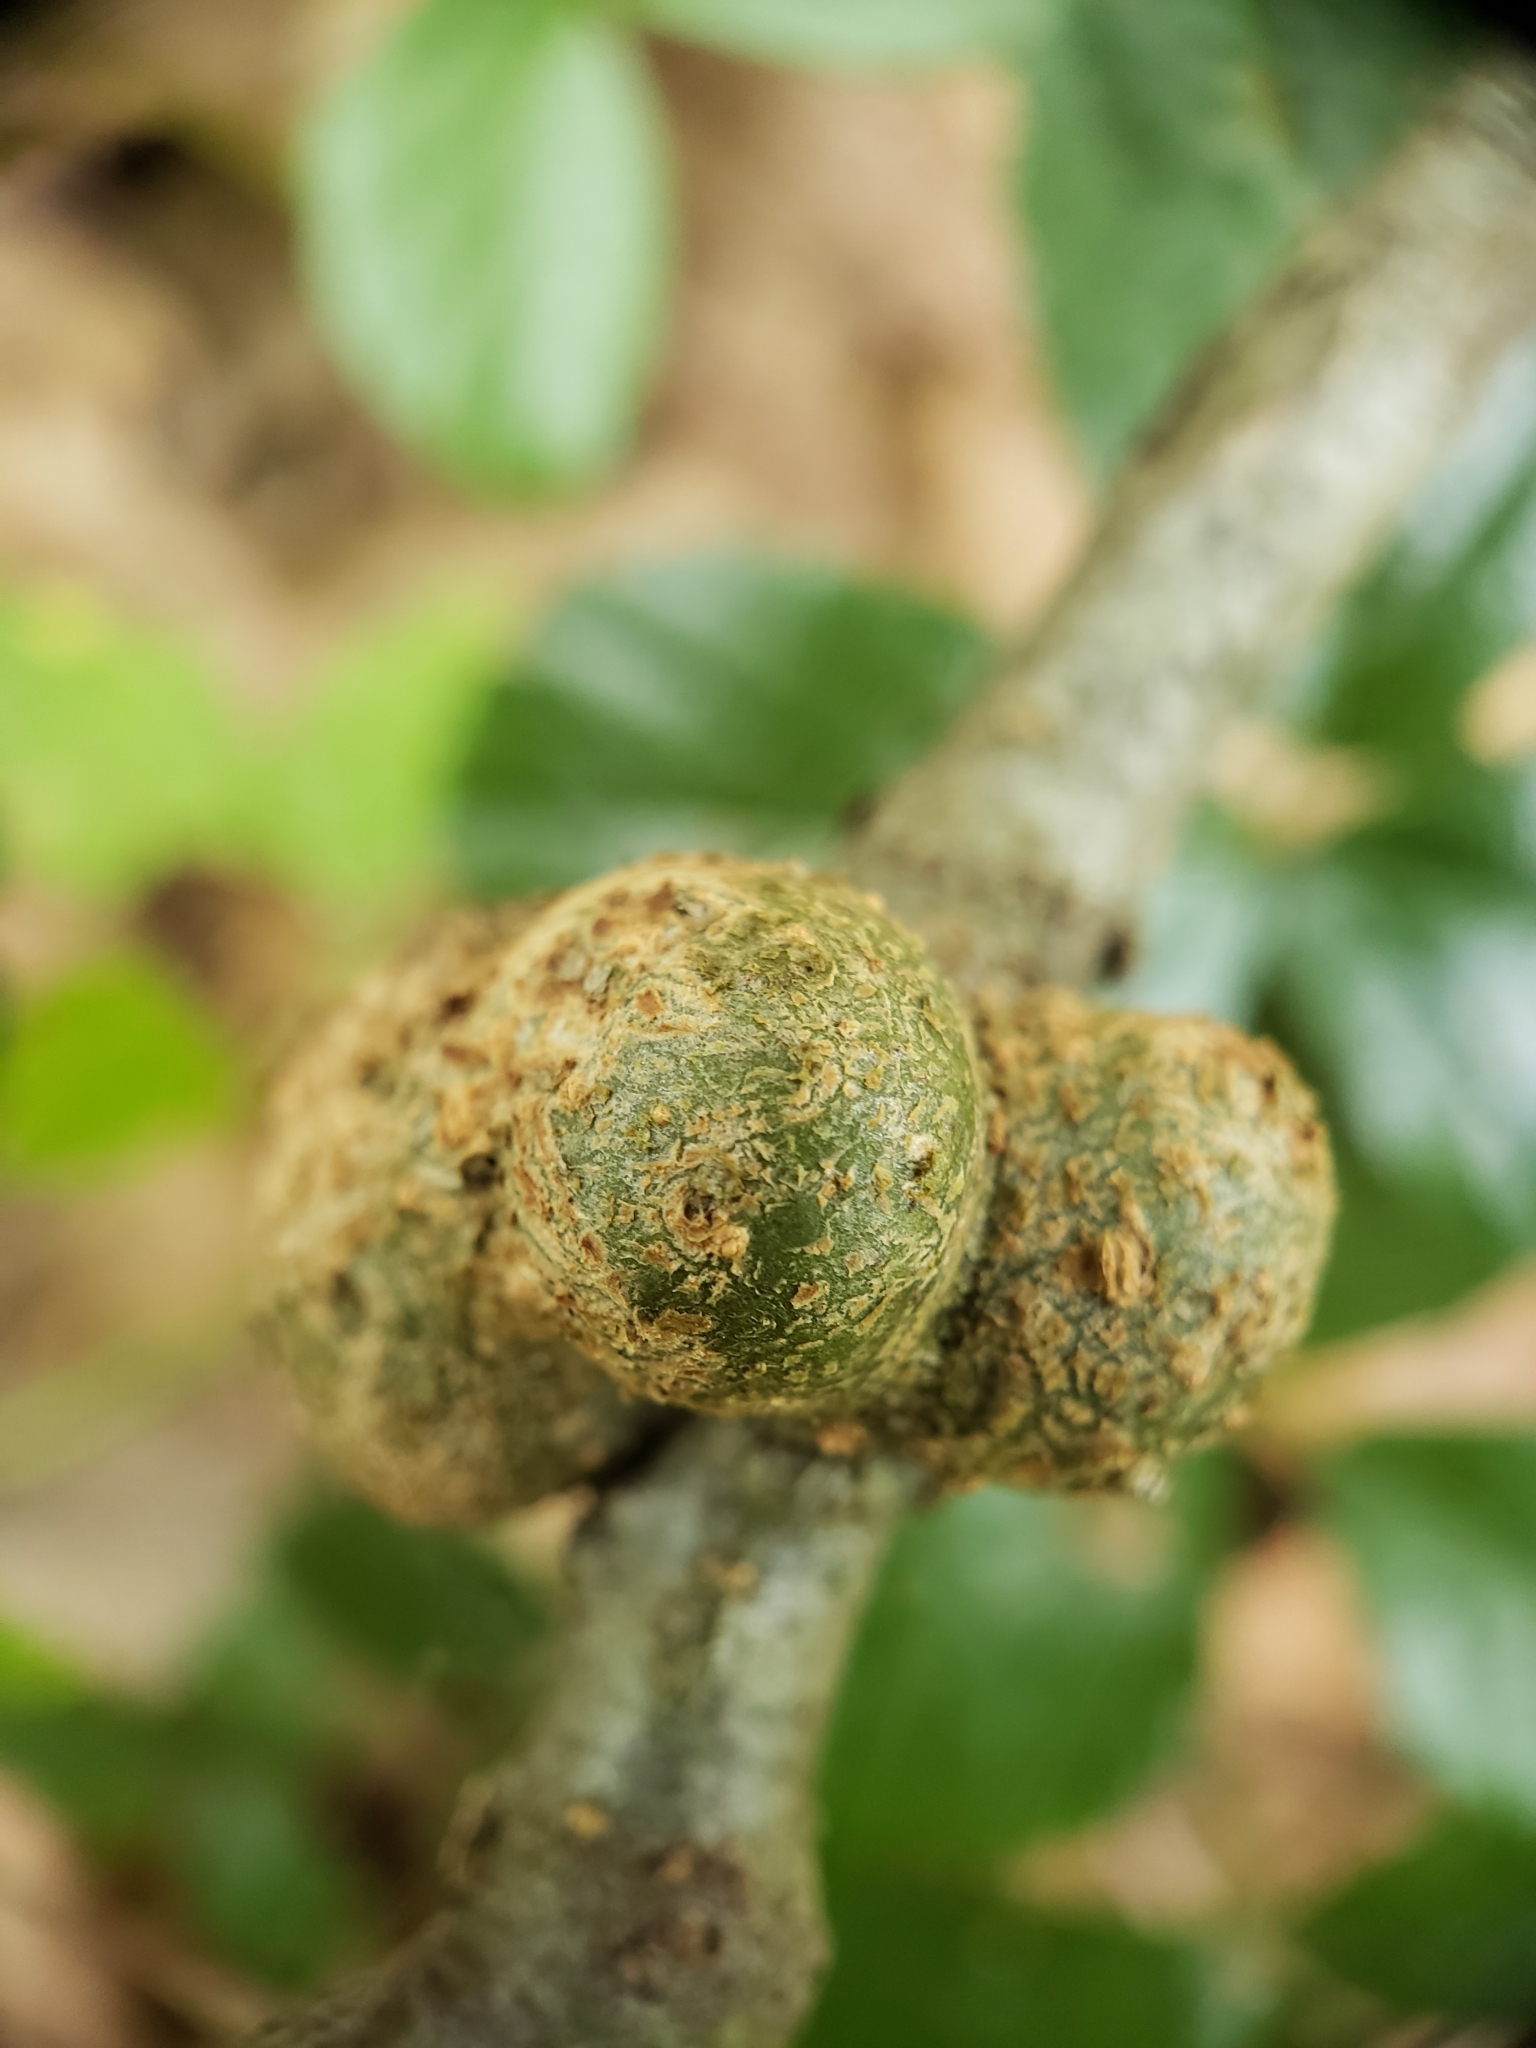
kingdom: Animalia
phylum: Arthropoda
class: Insecta
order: Hymenoptera
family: Cynipidae
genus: Callirhytis
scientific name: Callirhytis
